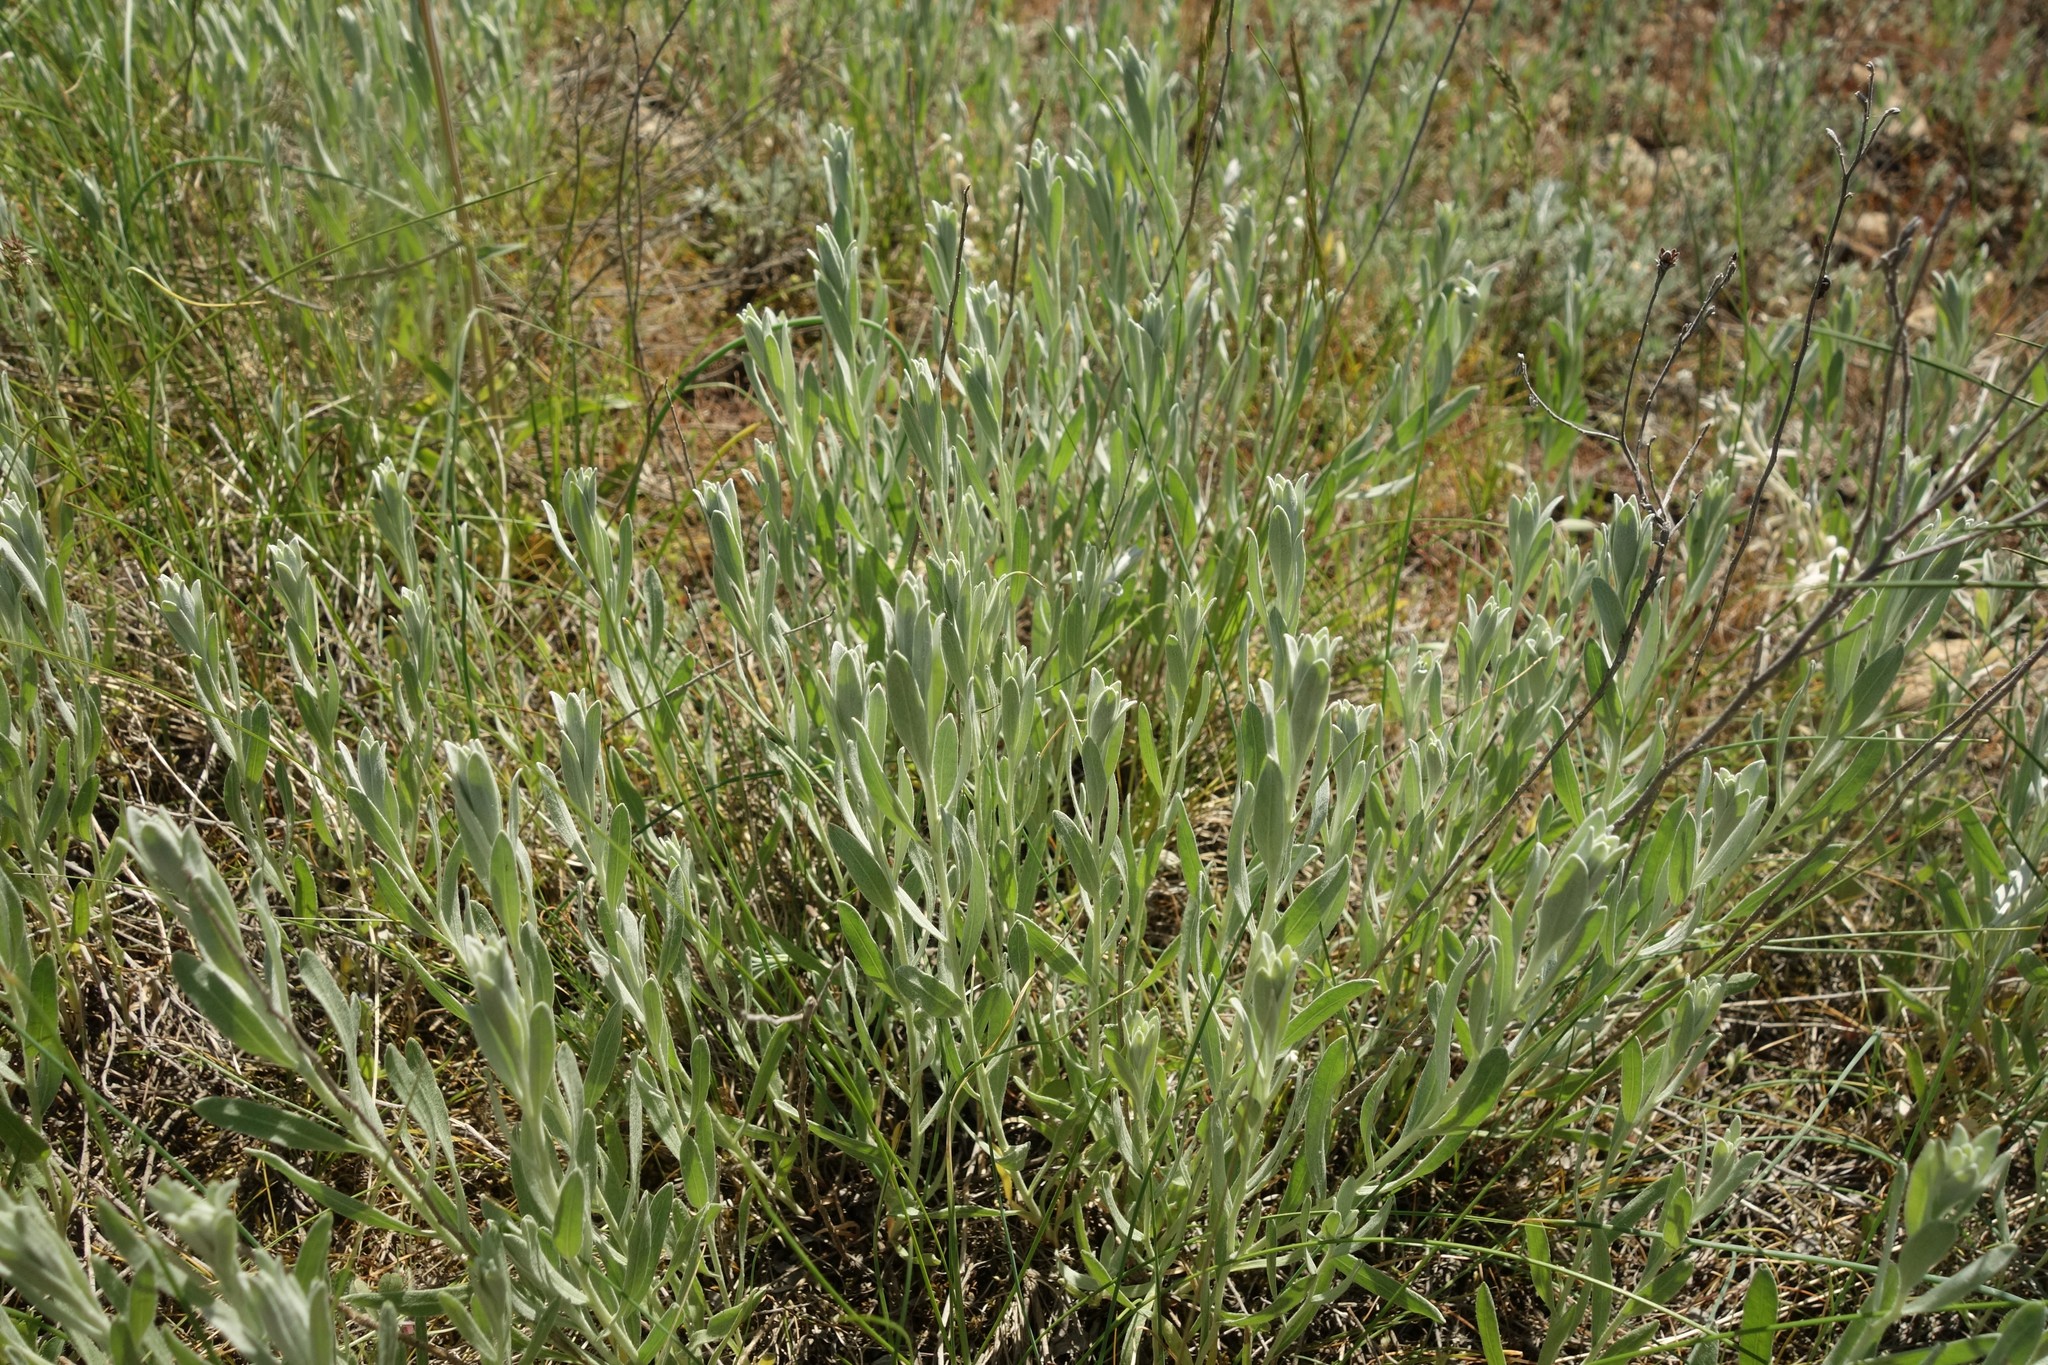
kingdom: Plantae
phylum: Tracheophyta
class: Magnoliopsida
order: Asterales
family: Asteraceae
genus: Galatella
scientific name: Galatella villosa
